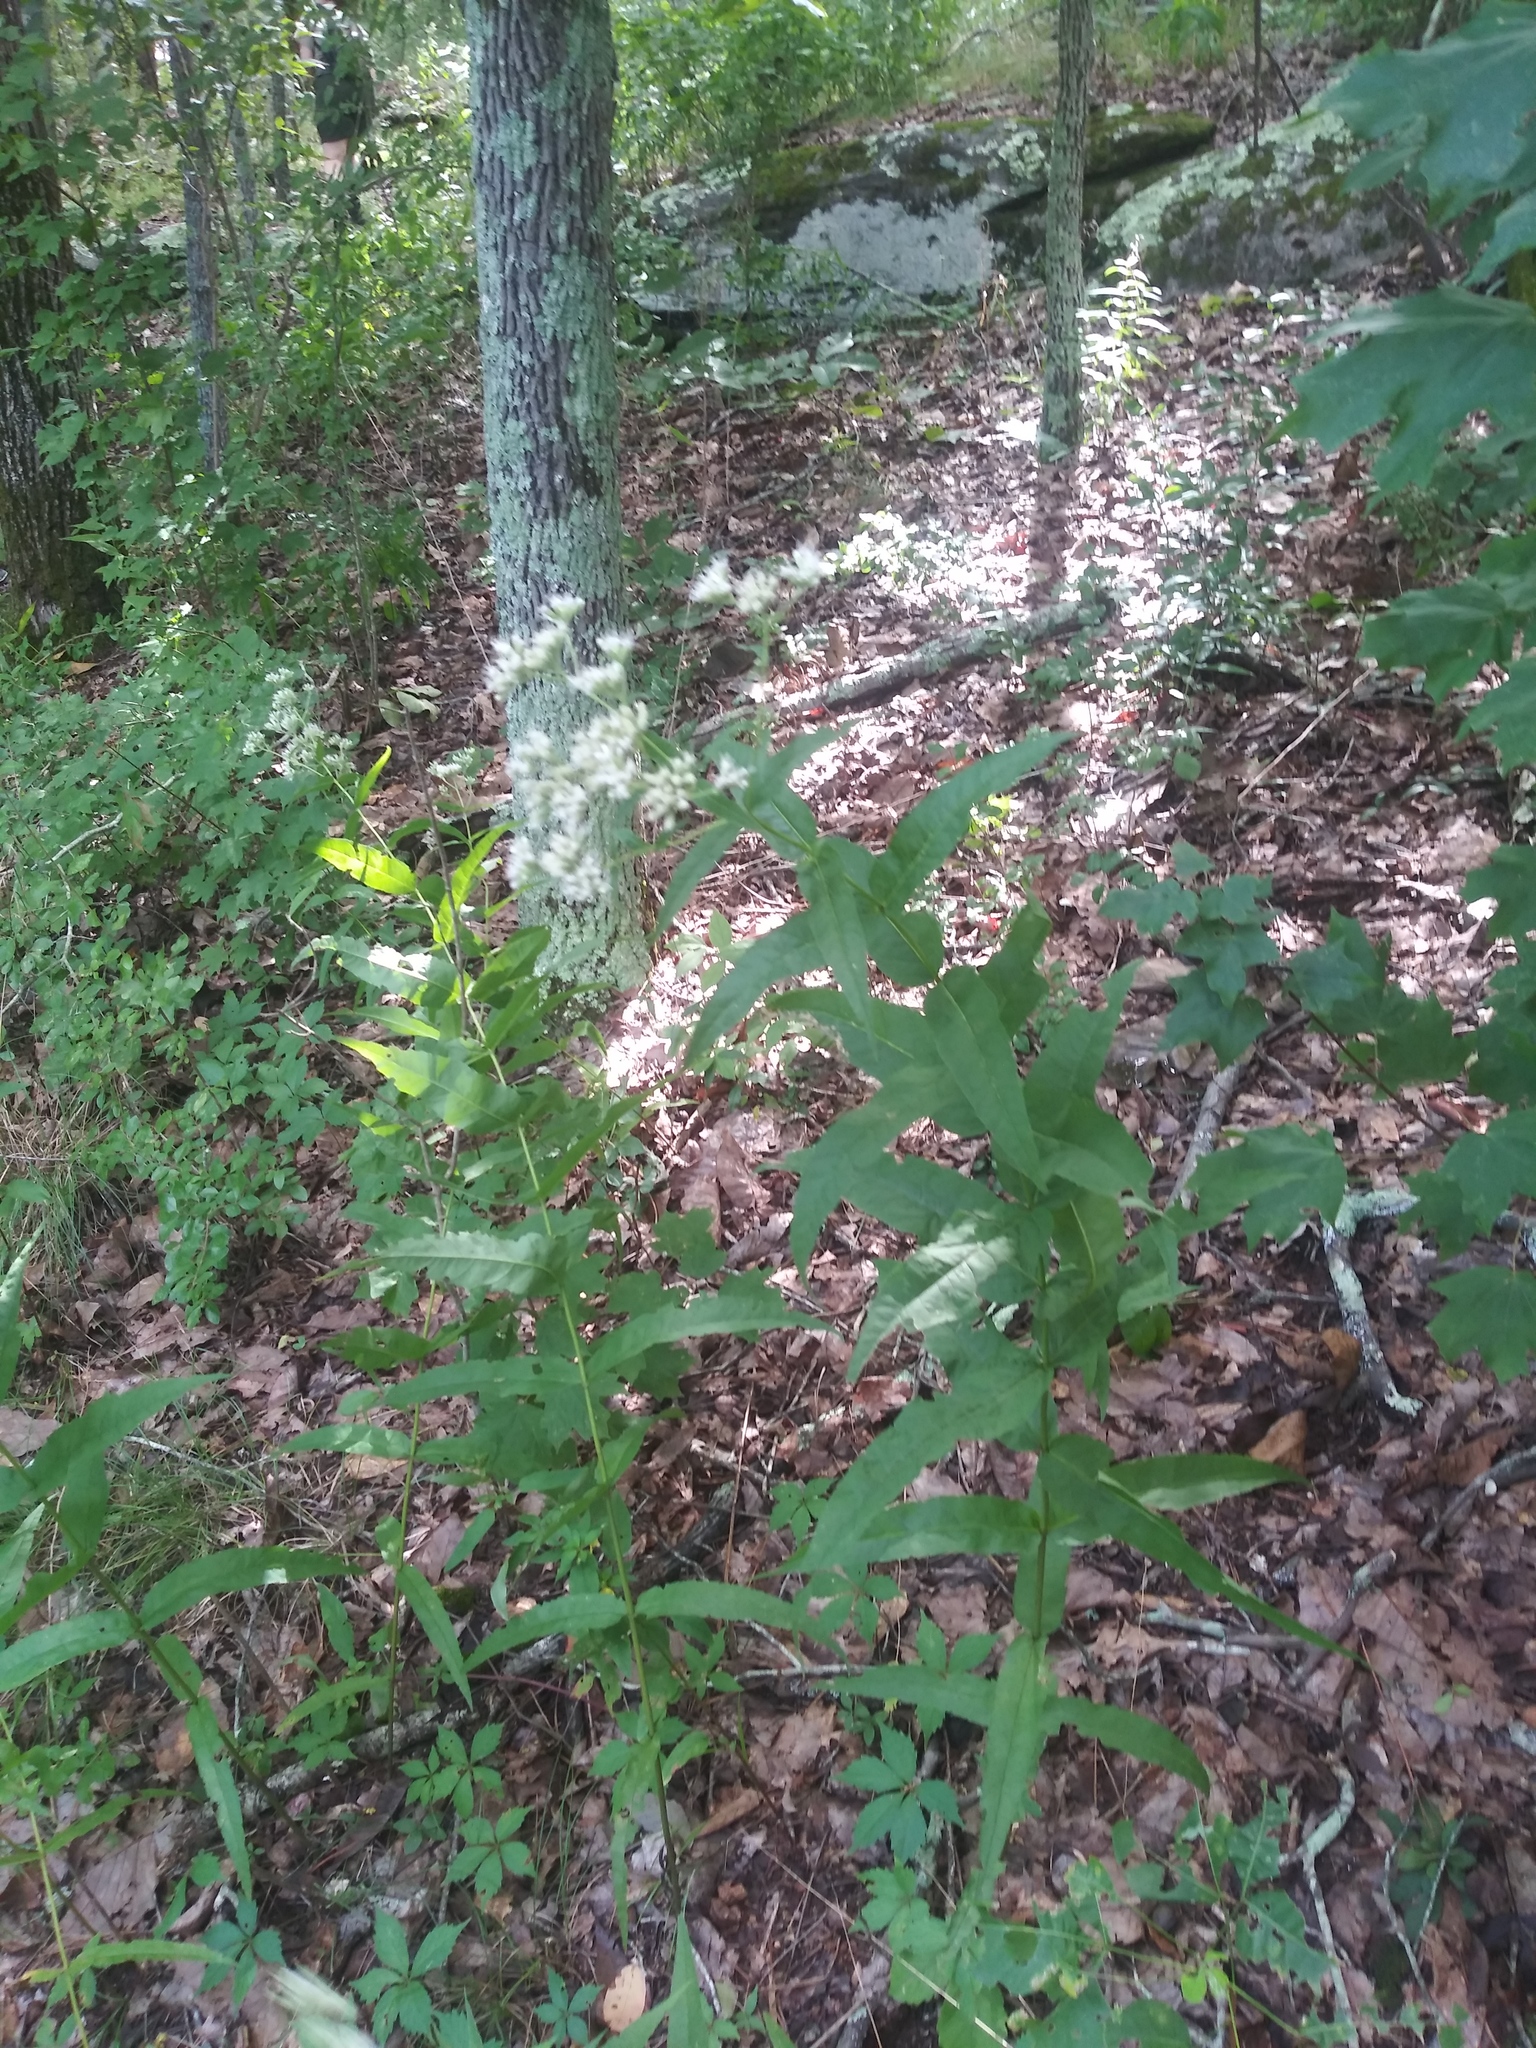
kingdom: Plantae
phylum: Tracheophyta
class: Magnoliopsida
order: Asterales
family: Asteraceae
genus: Eupatorium
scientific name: Eupatorium sessilifolium
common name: Upland boneset
